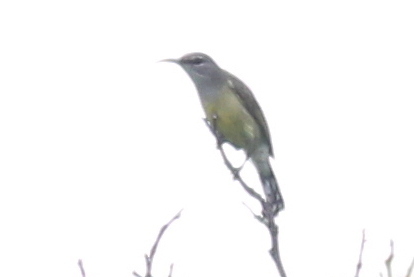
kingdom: Animalia
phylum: Chordata
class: Aves
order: Passeriformes
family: Nectariniidae
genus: Leptocoma
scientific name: Leptocoma calcostetha
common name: Copper-throated sunbird
